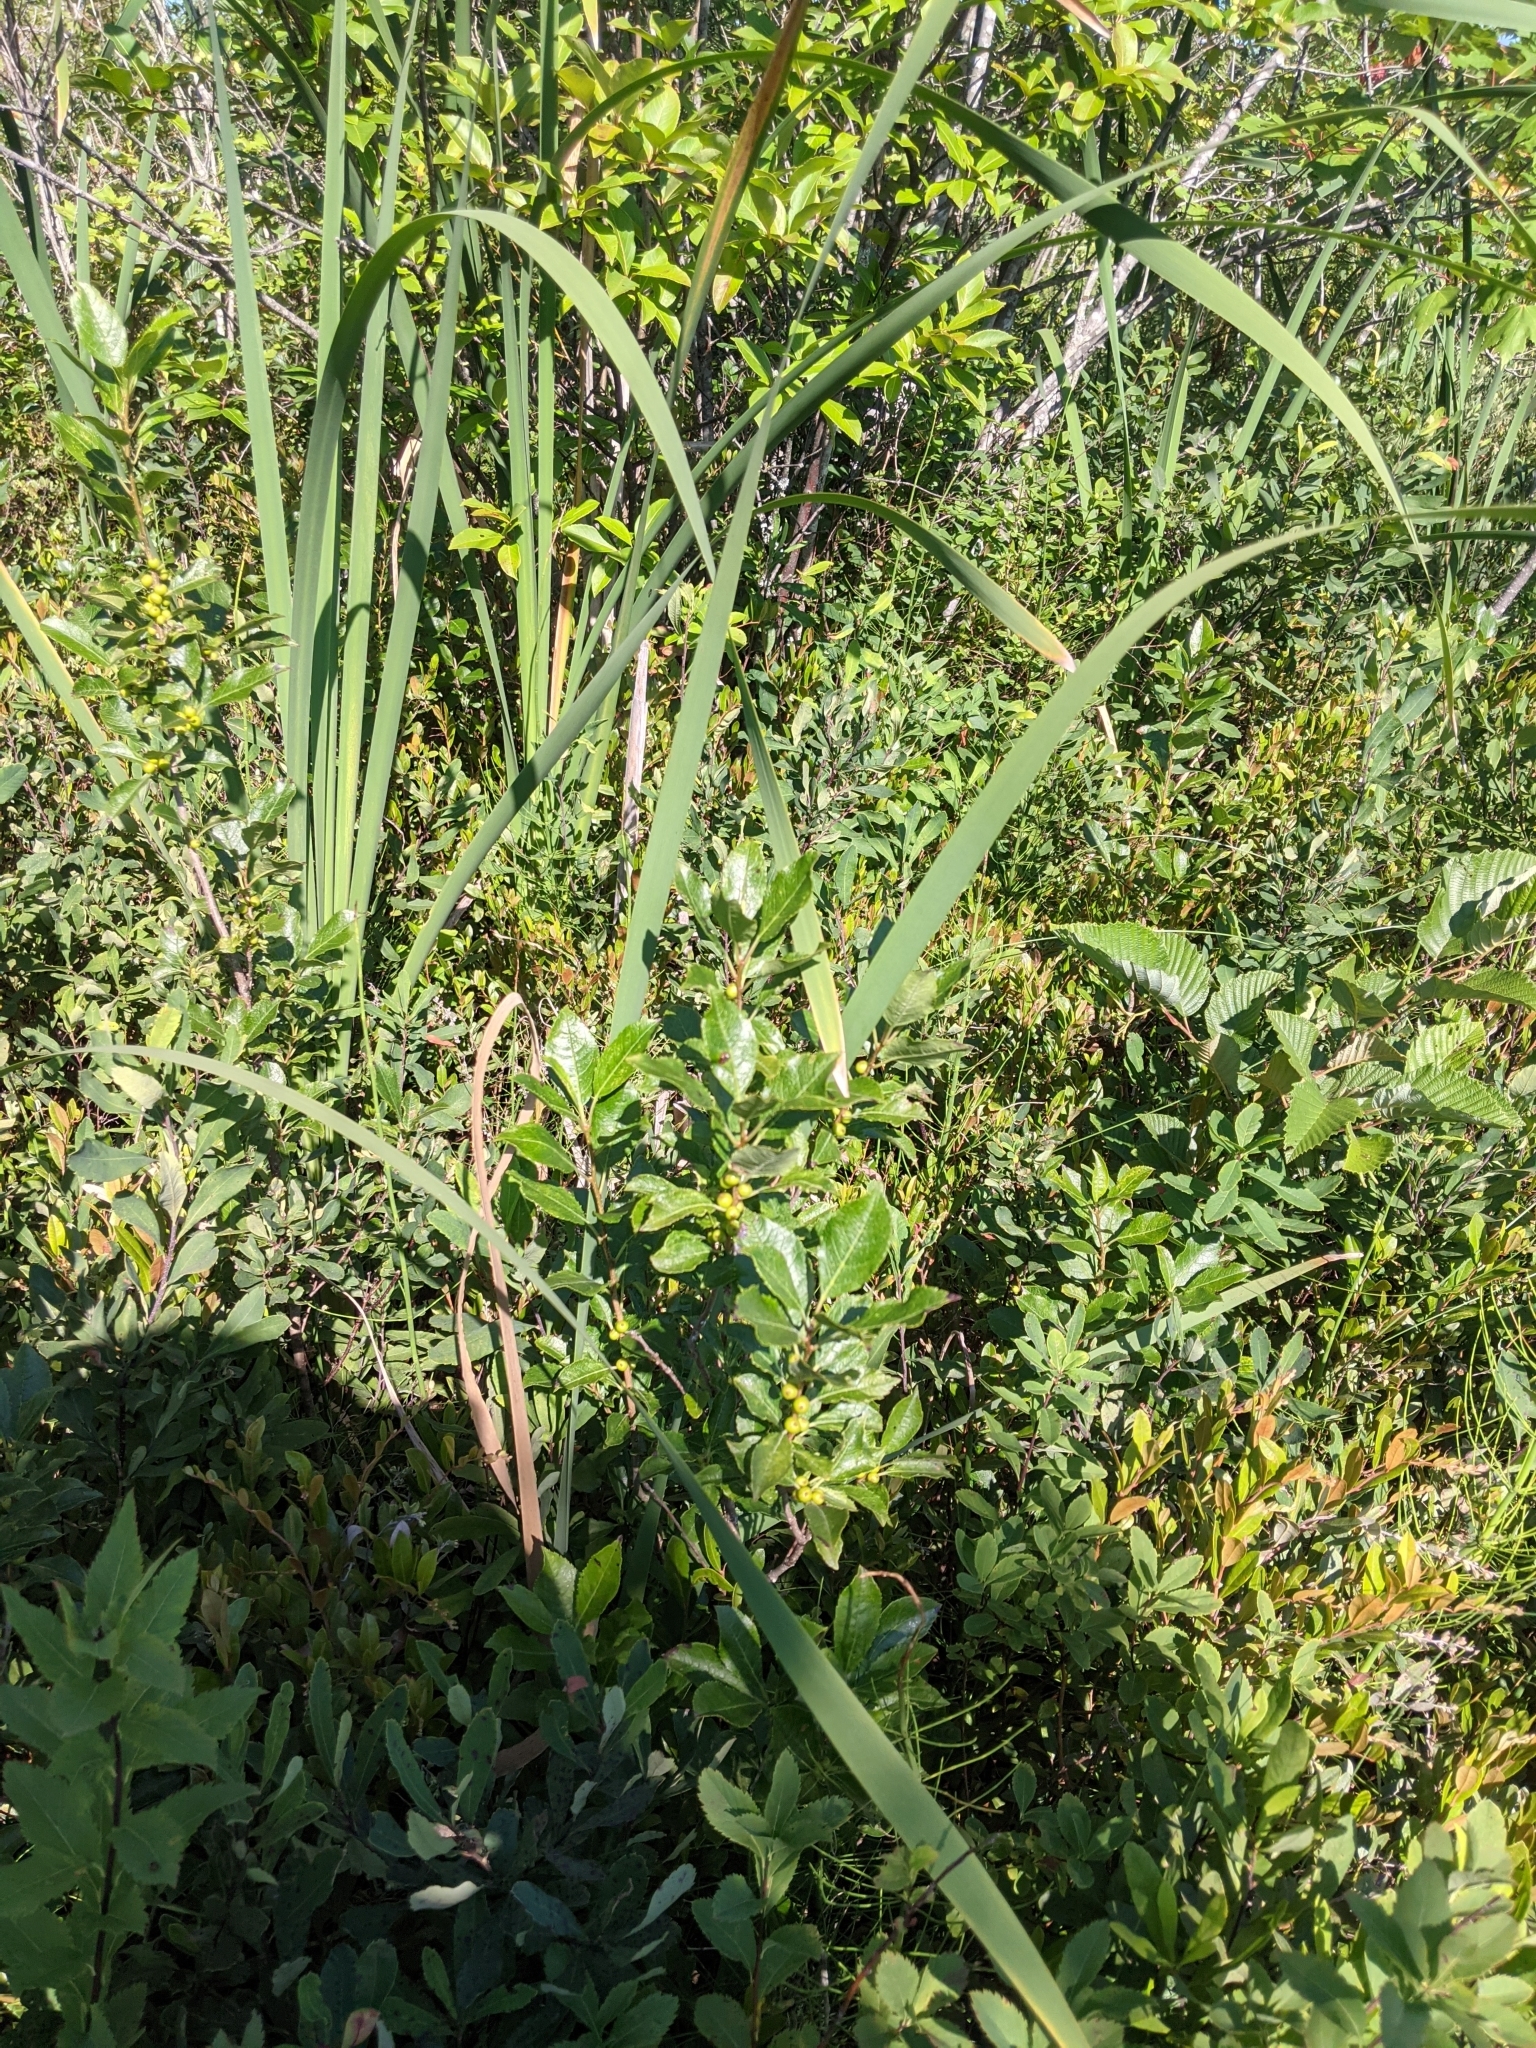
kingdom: Plantae
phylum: Tracheophyta
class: Magnoliopsida
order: Aquifoliales
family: Aquifoliaceae
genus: Ilex
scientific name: Ilex verticillata
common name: Virginia winterberry
